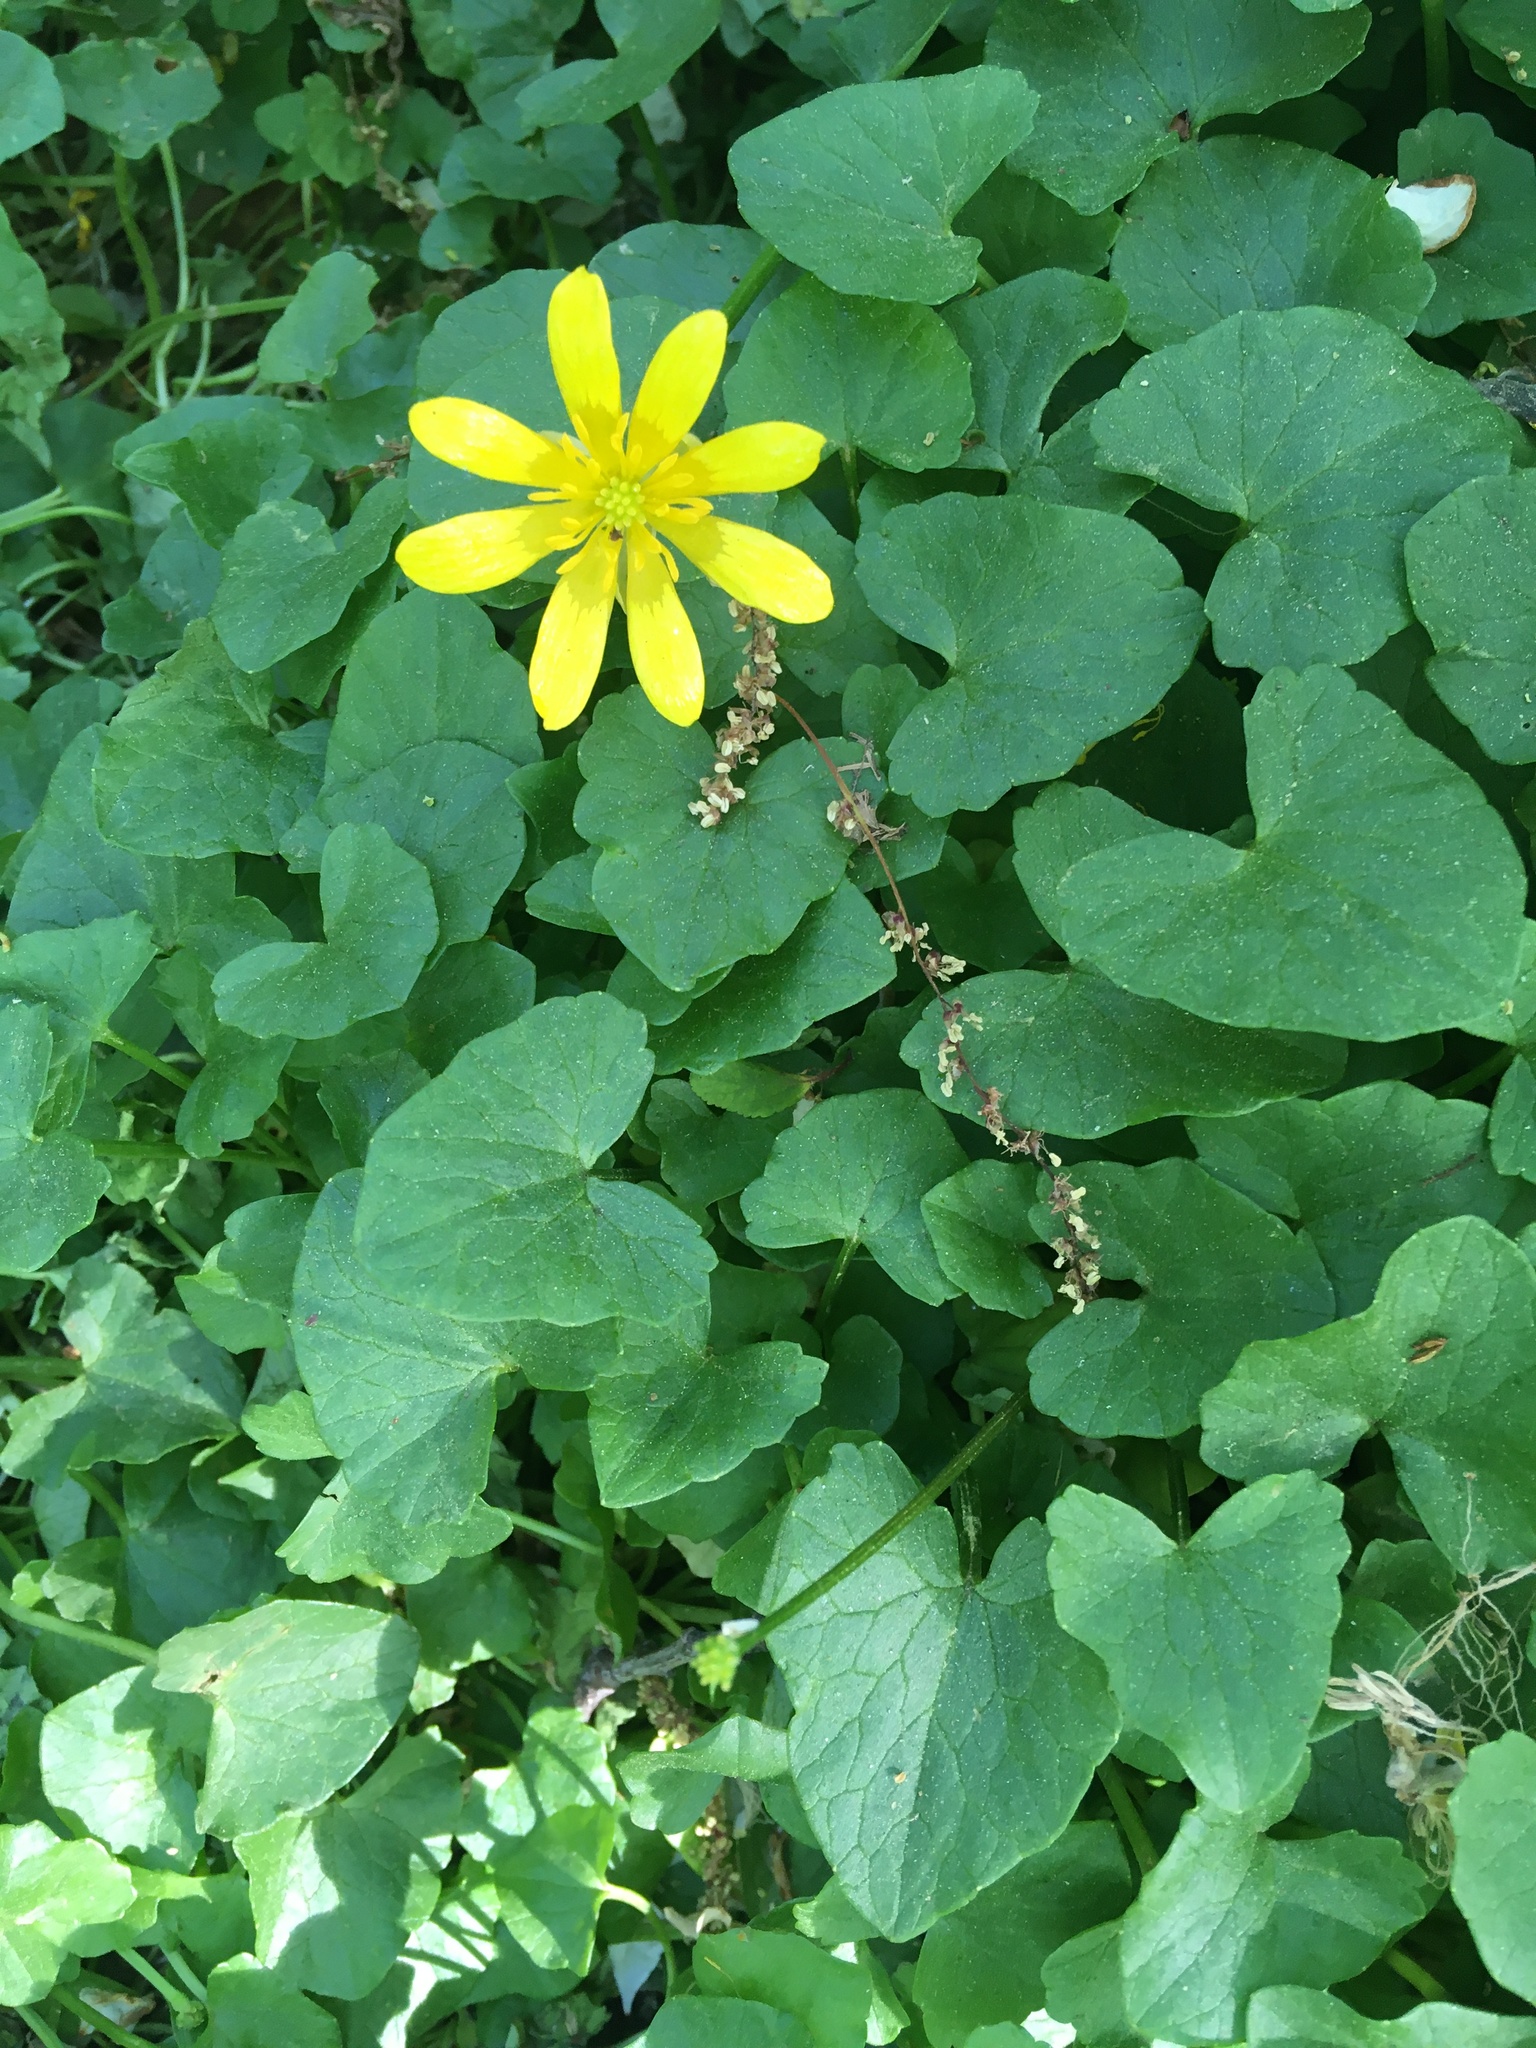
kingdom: Plantae
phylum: Tracheophyta
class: Magnoliopsida
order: Ranunculales
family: Ranunculaceae
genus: Ficaria
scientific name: Ficaria verna
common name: Lesser celandine
